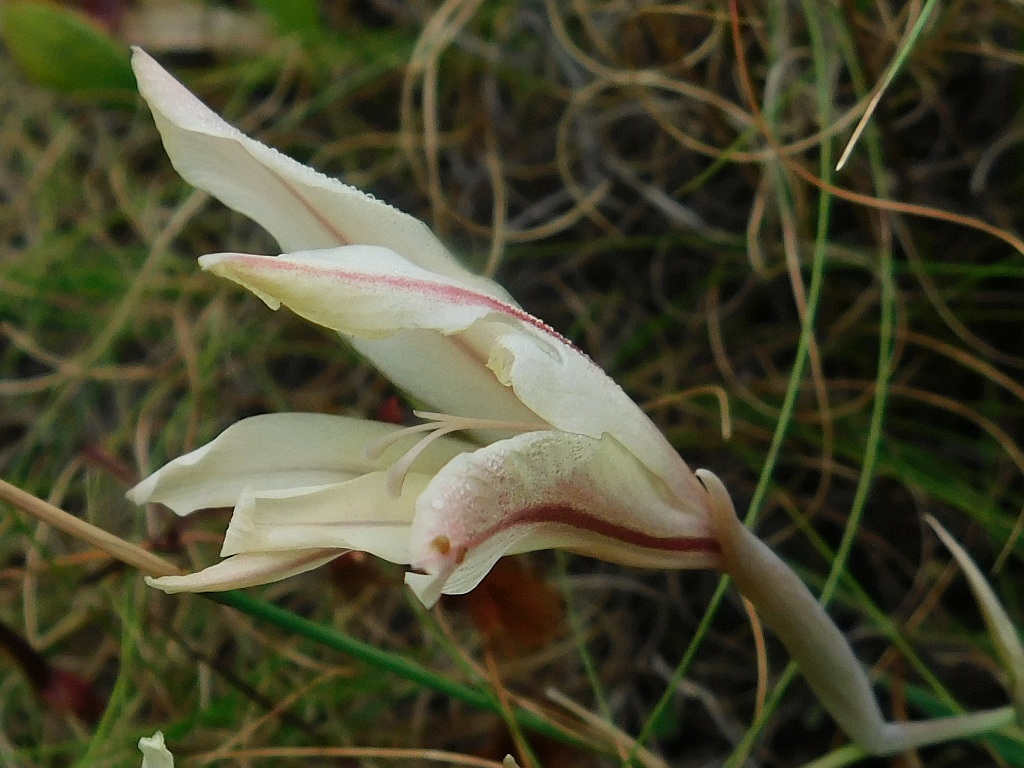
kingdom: Plantae
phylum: Tracheophyta
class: Liliopsida
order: Asparagales
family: Iridaceae
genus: Gladiolus
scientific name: Gladiolus floribundus
